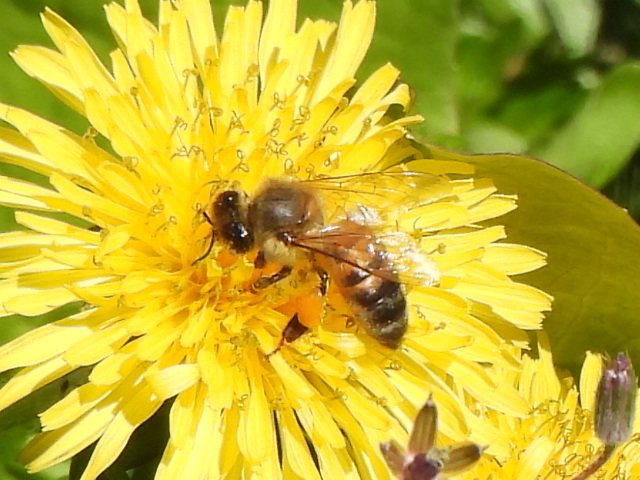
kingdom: Animalia
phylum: Arthropoda
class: Insecta
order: Hymenoptera
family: Apidae
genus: Apis
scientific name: Apis mellifera
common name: Honey bee
